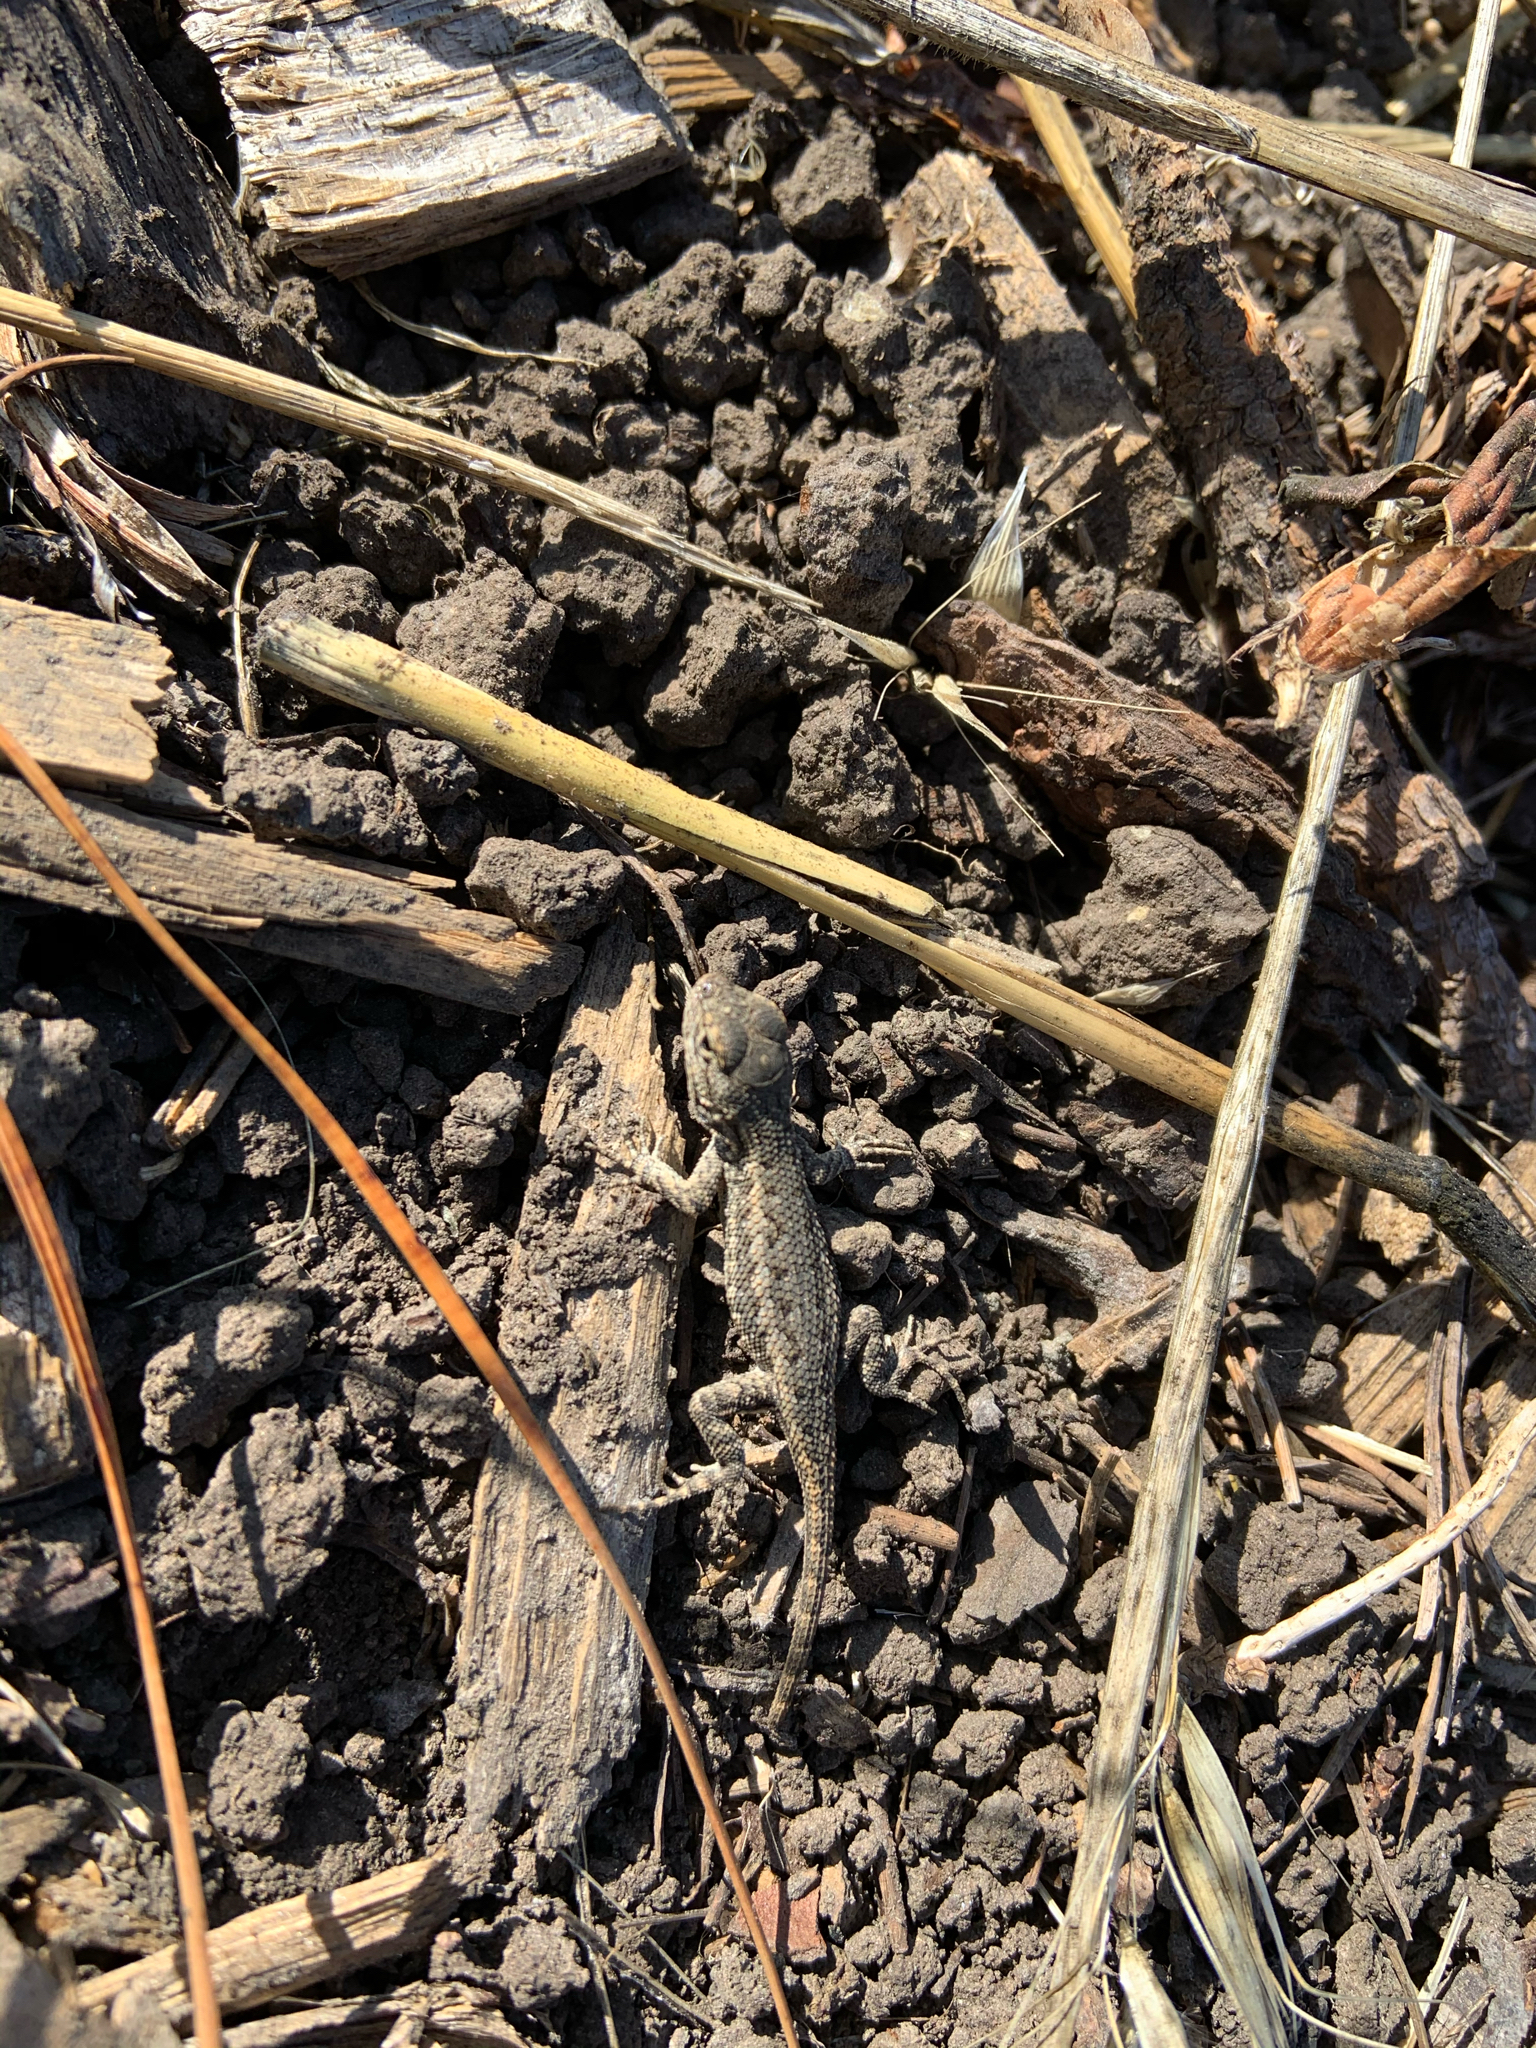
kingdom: Animalia
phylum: Chordata
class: Squamata
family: Phrynosomatidae
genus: Sceloporus
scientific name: Sceloporus occidentalis
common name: Western fence lizard
